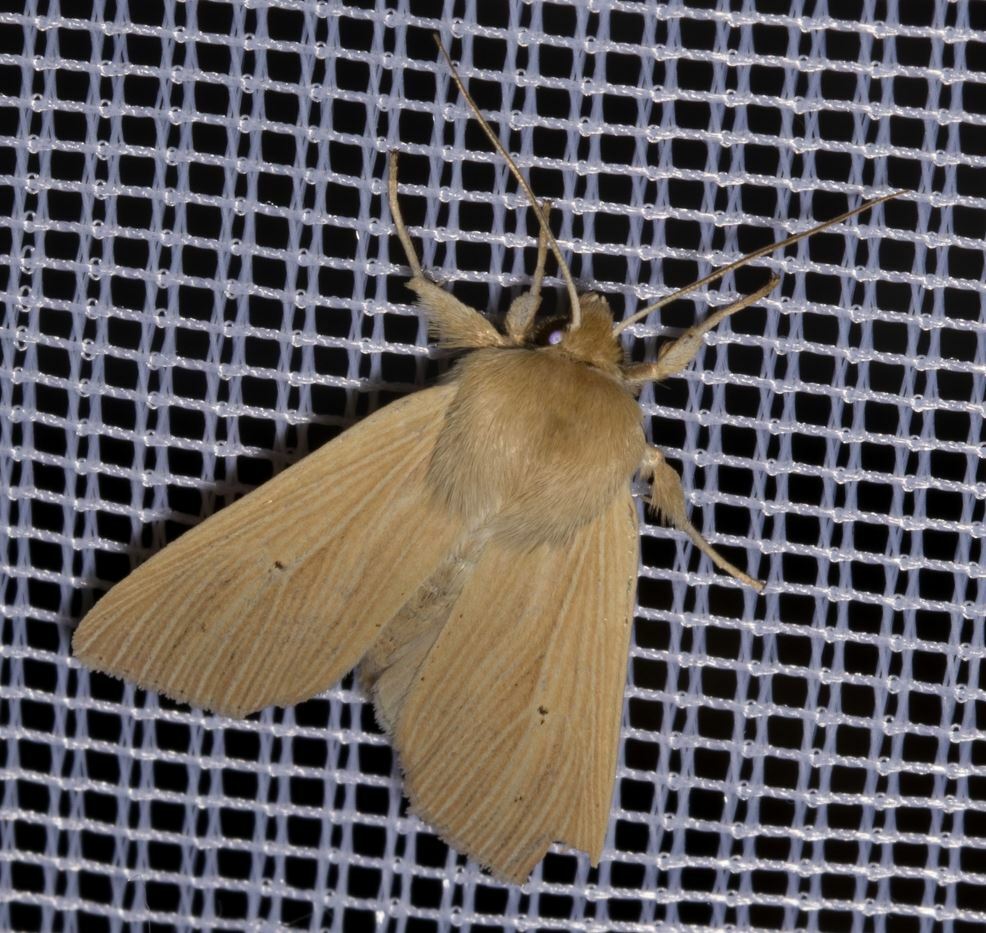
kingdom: Animalia
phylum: Arthropoda
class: Insecta
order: Lepidoptera
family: Noctuidae
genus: Mythimna
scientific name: Mythimna pallens
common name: Common wainscot
